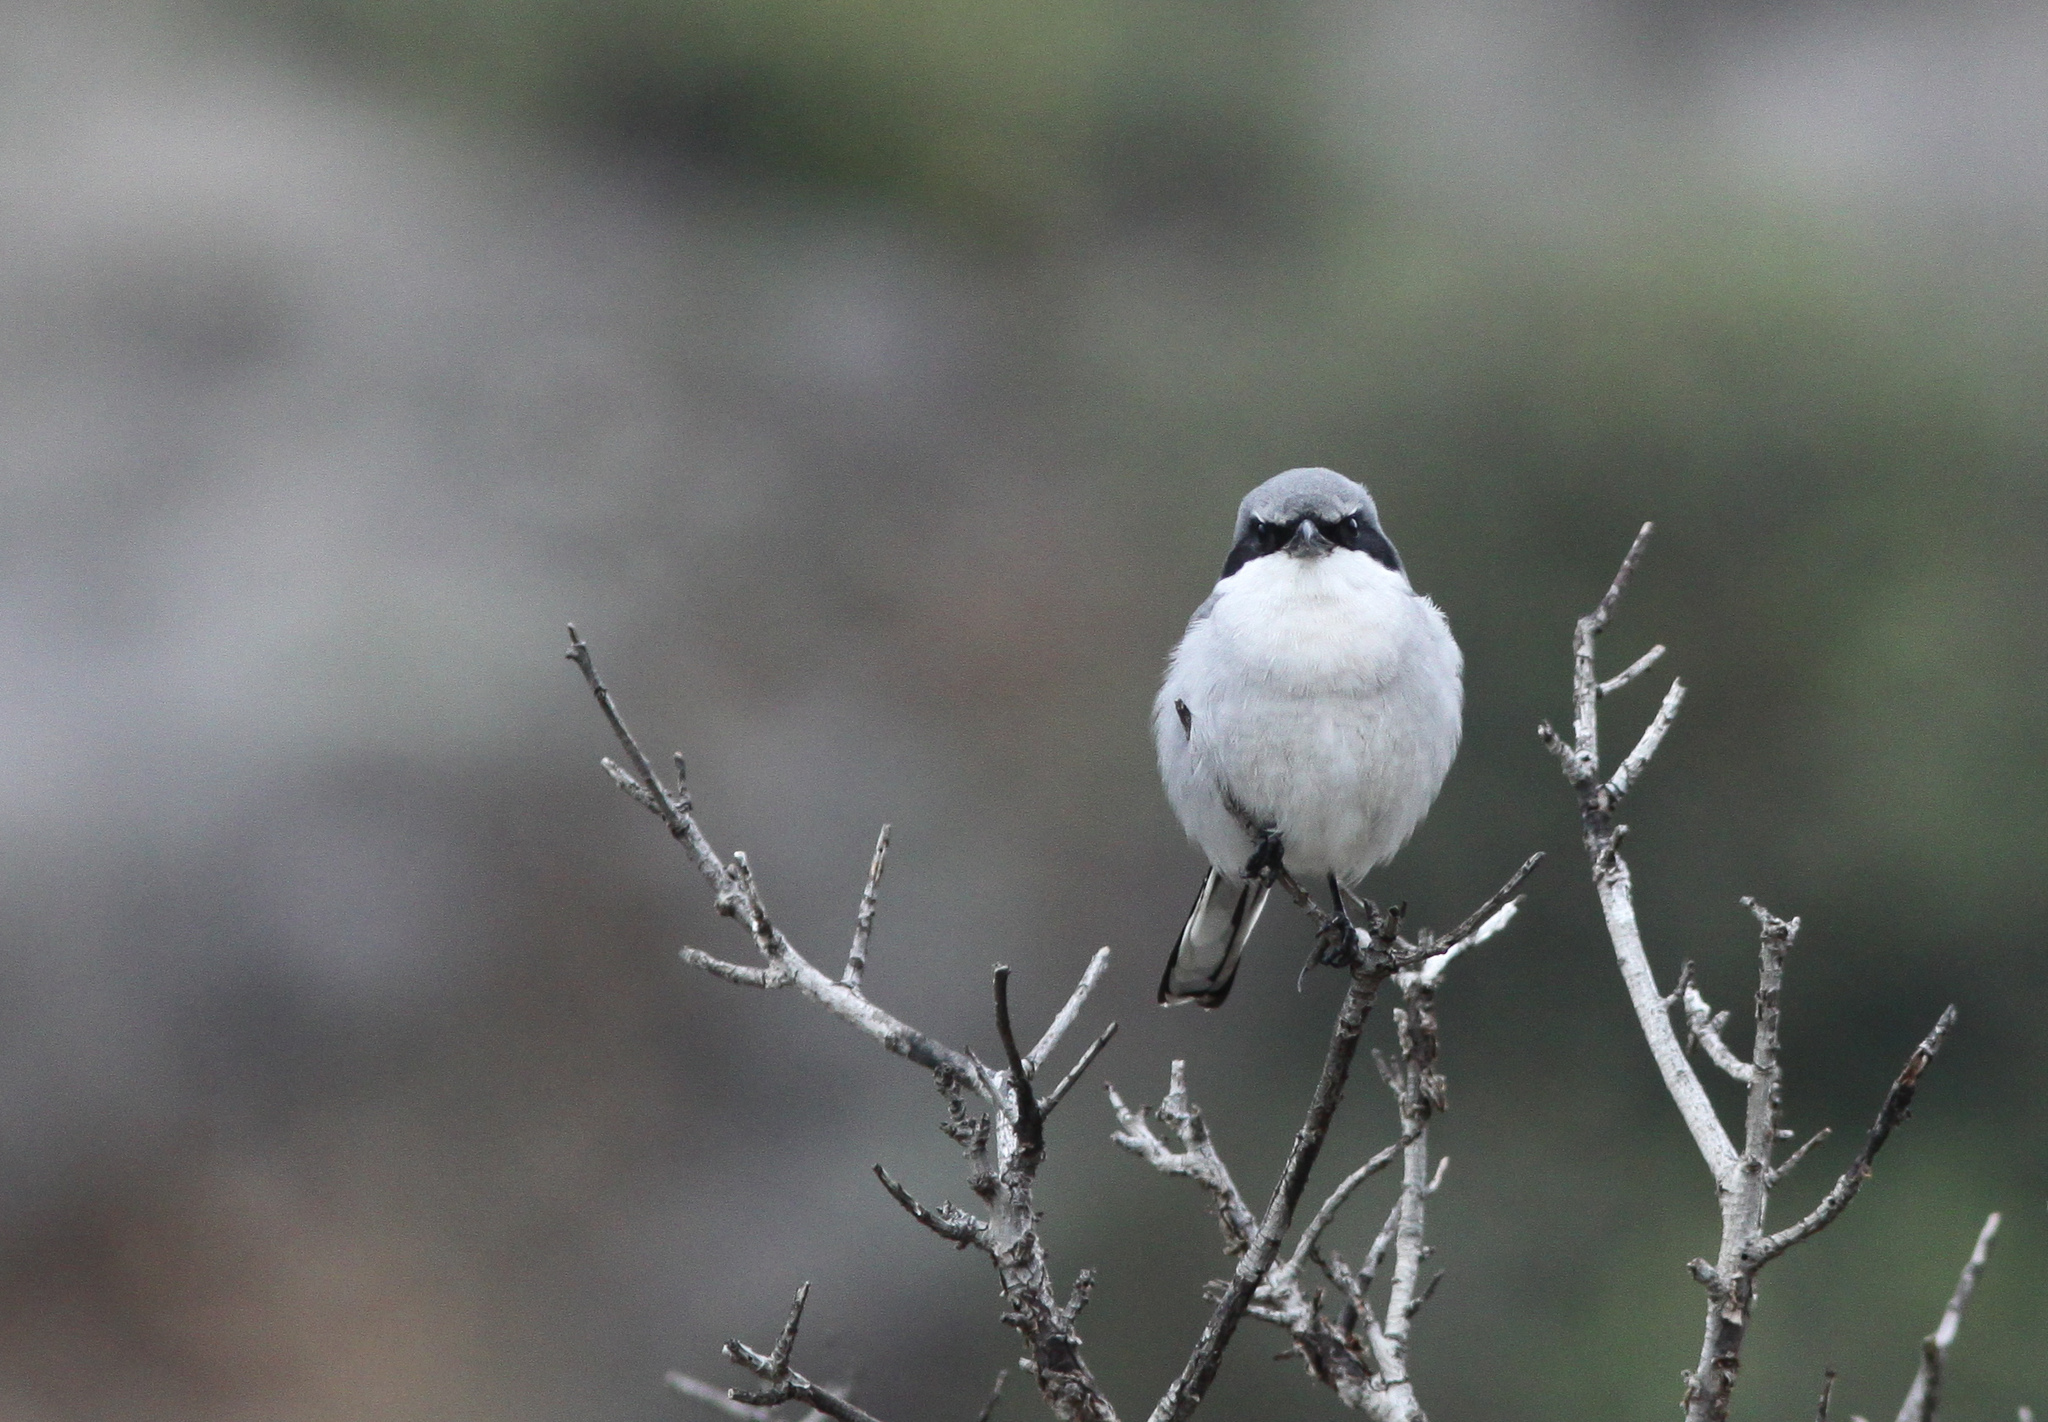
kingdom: Animalia
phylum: Chordata
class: Aves
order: Passeriformes
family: Laniidae
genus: Lanius
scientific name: Lanius ludovicianus
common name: Loggerhead shrike
